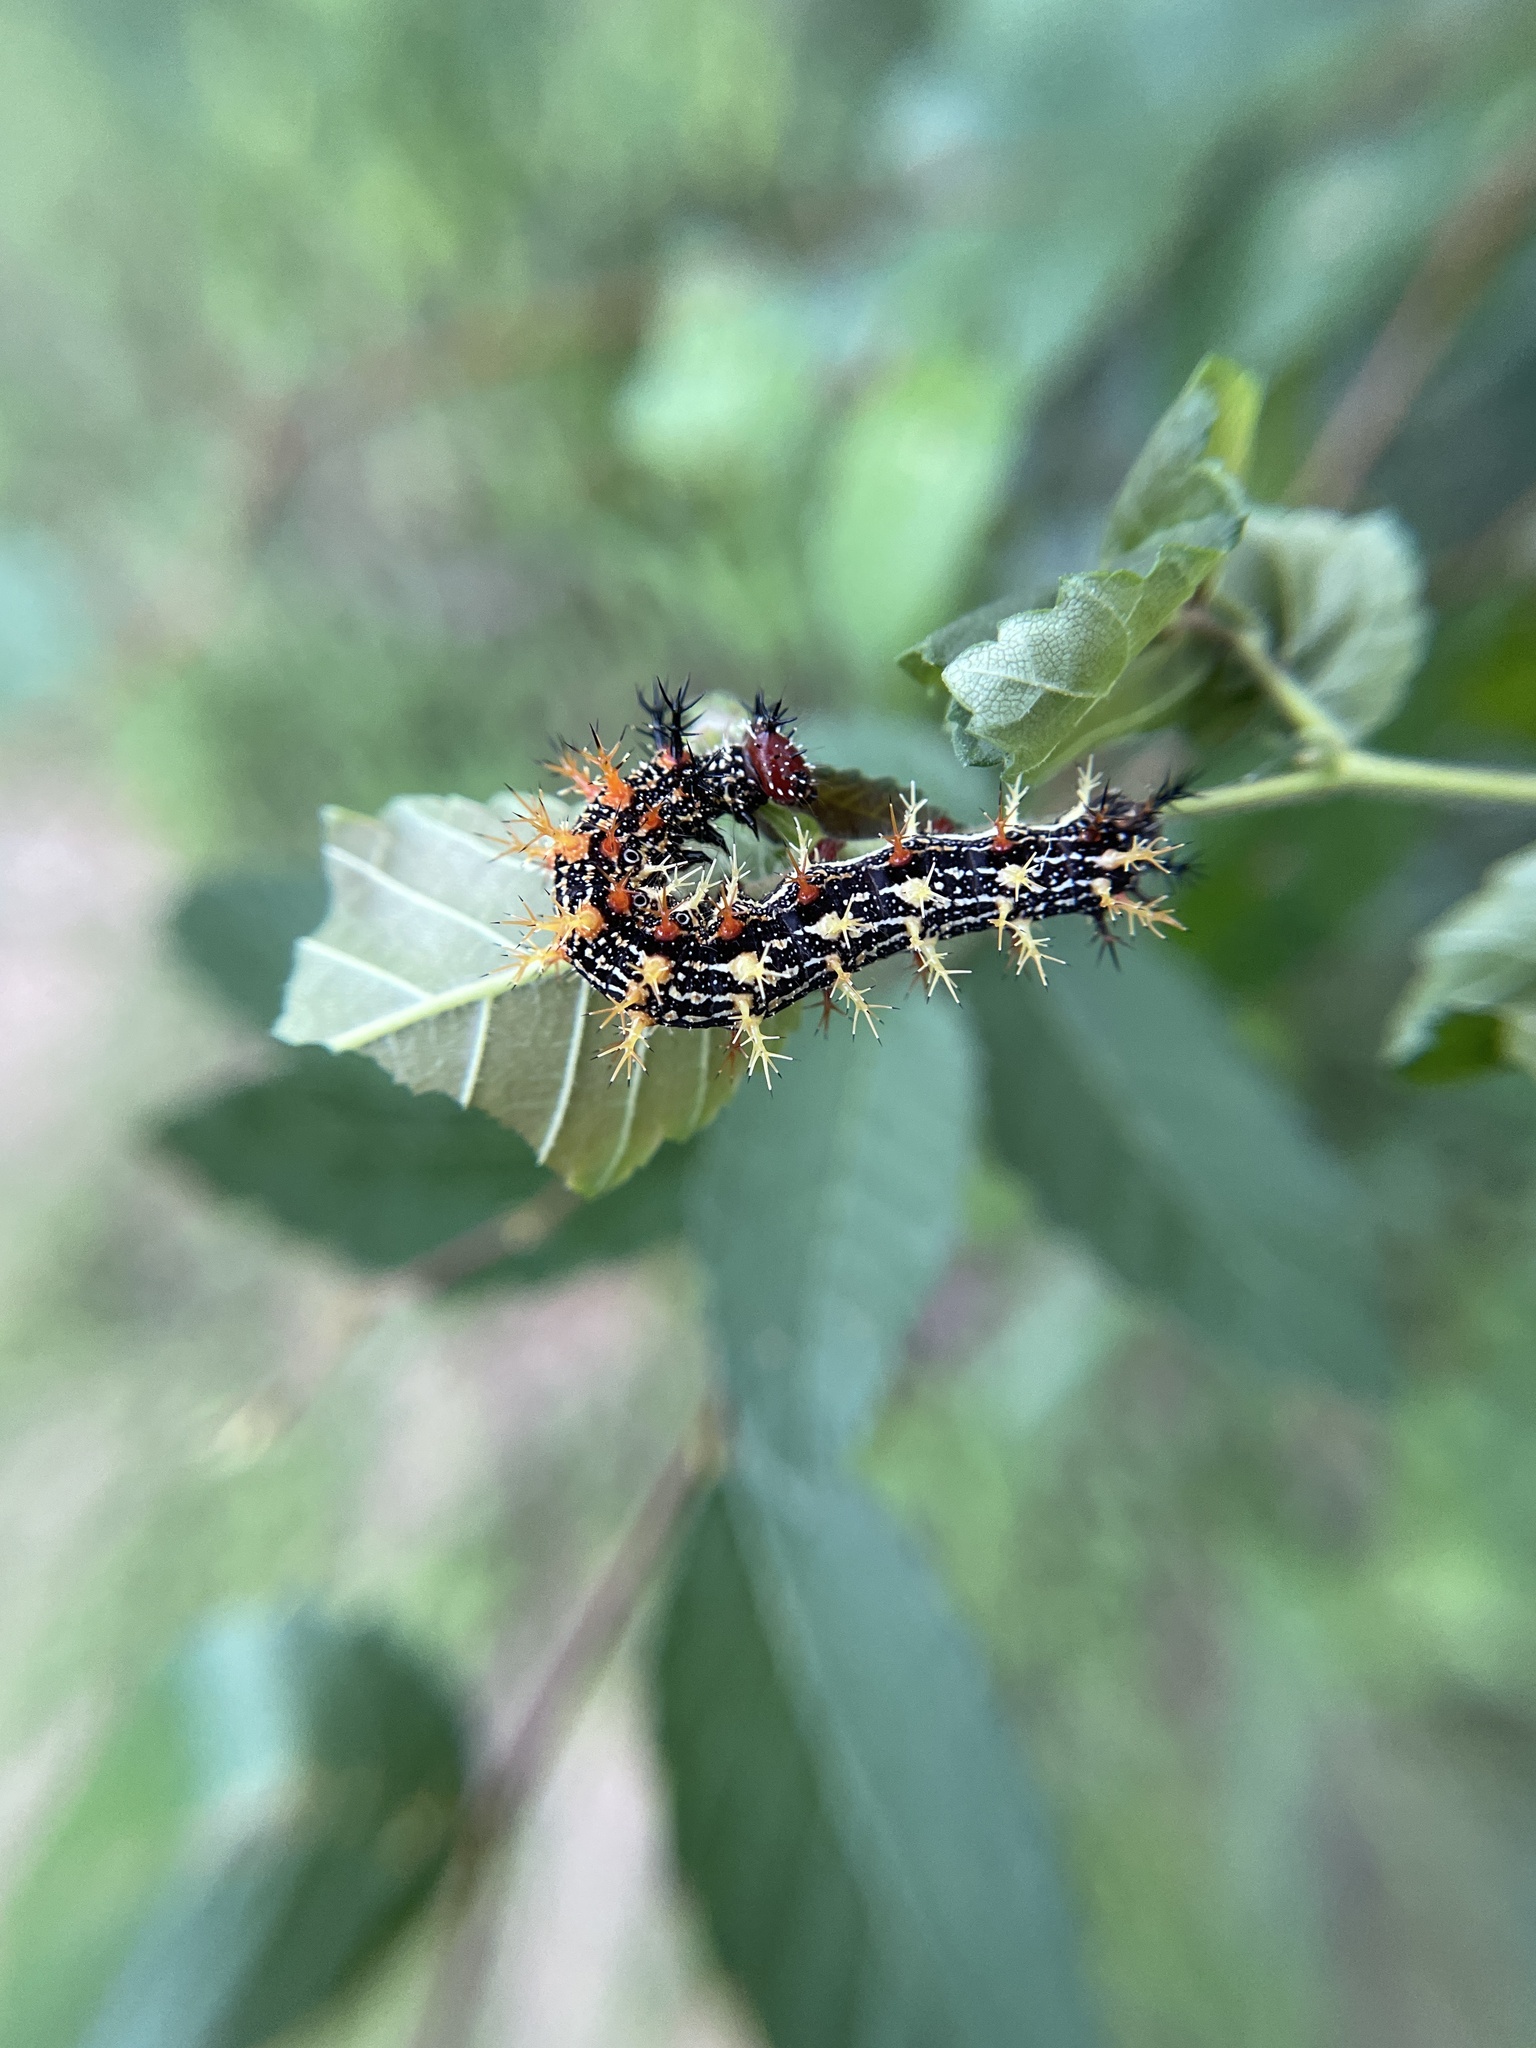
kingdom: Animalia
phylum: Arthropoda
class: Insecta
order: Lepidoptera
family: Nymphalidae
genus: Polygonia
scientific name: Polygonia interrogationis
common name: Question mark
